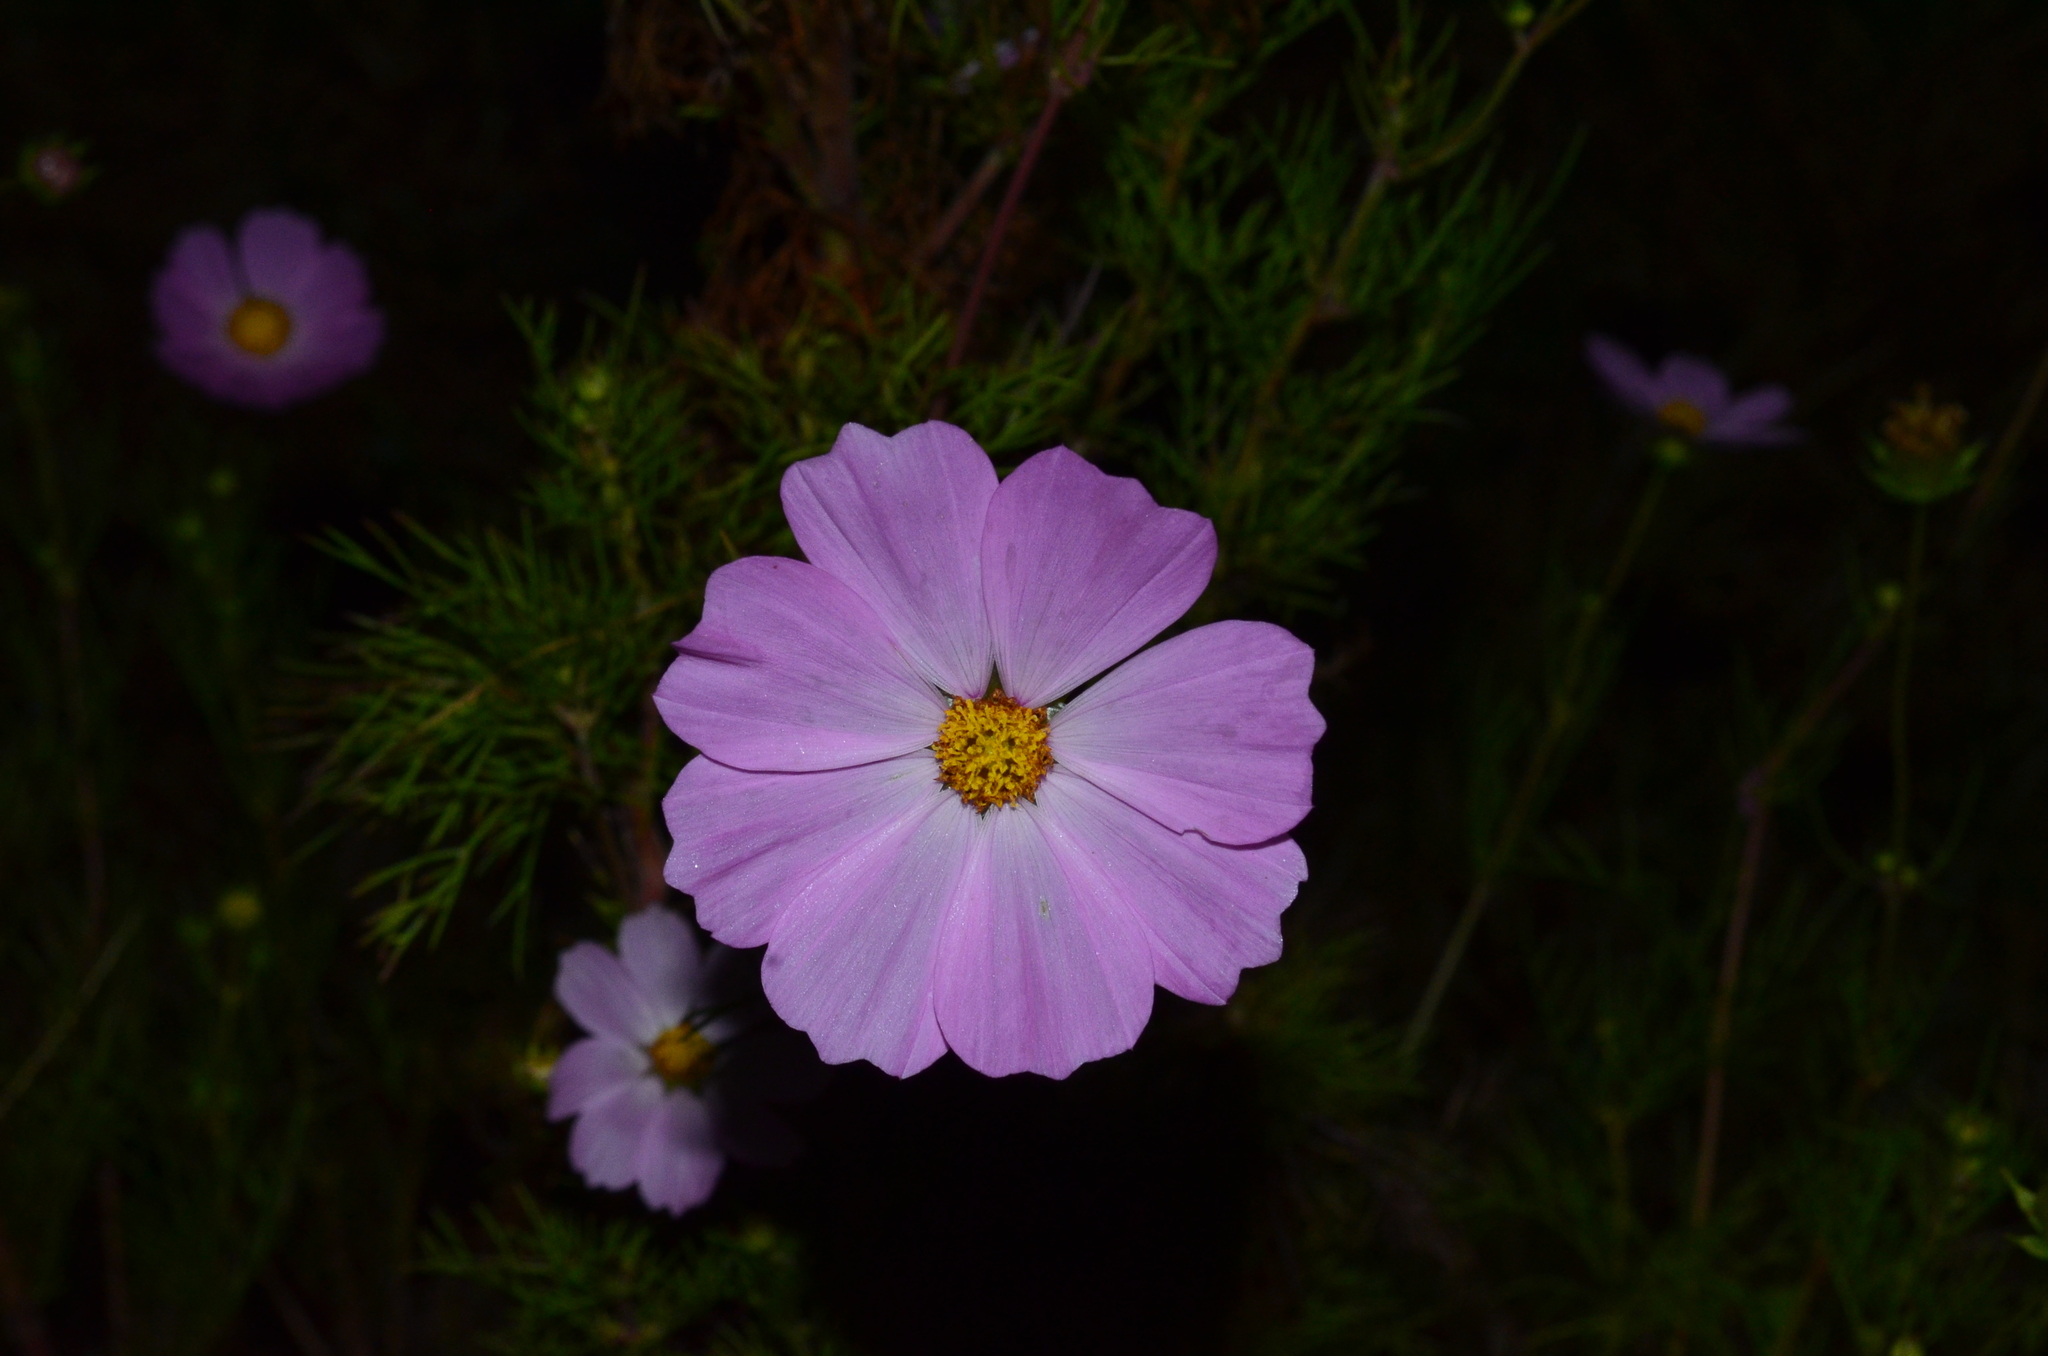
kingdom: Plantae
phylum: Tracheophyta
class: Magnoliopsida
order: Asterales
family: Asteraceae
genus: Cosmos
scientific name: Cosmos bipinnatus
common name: Garden cosmos
